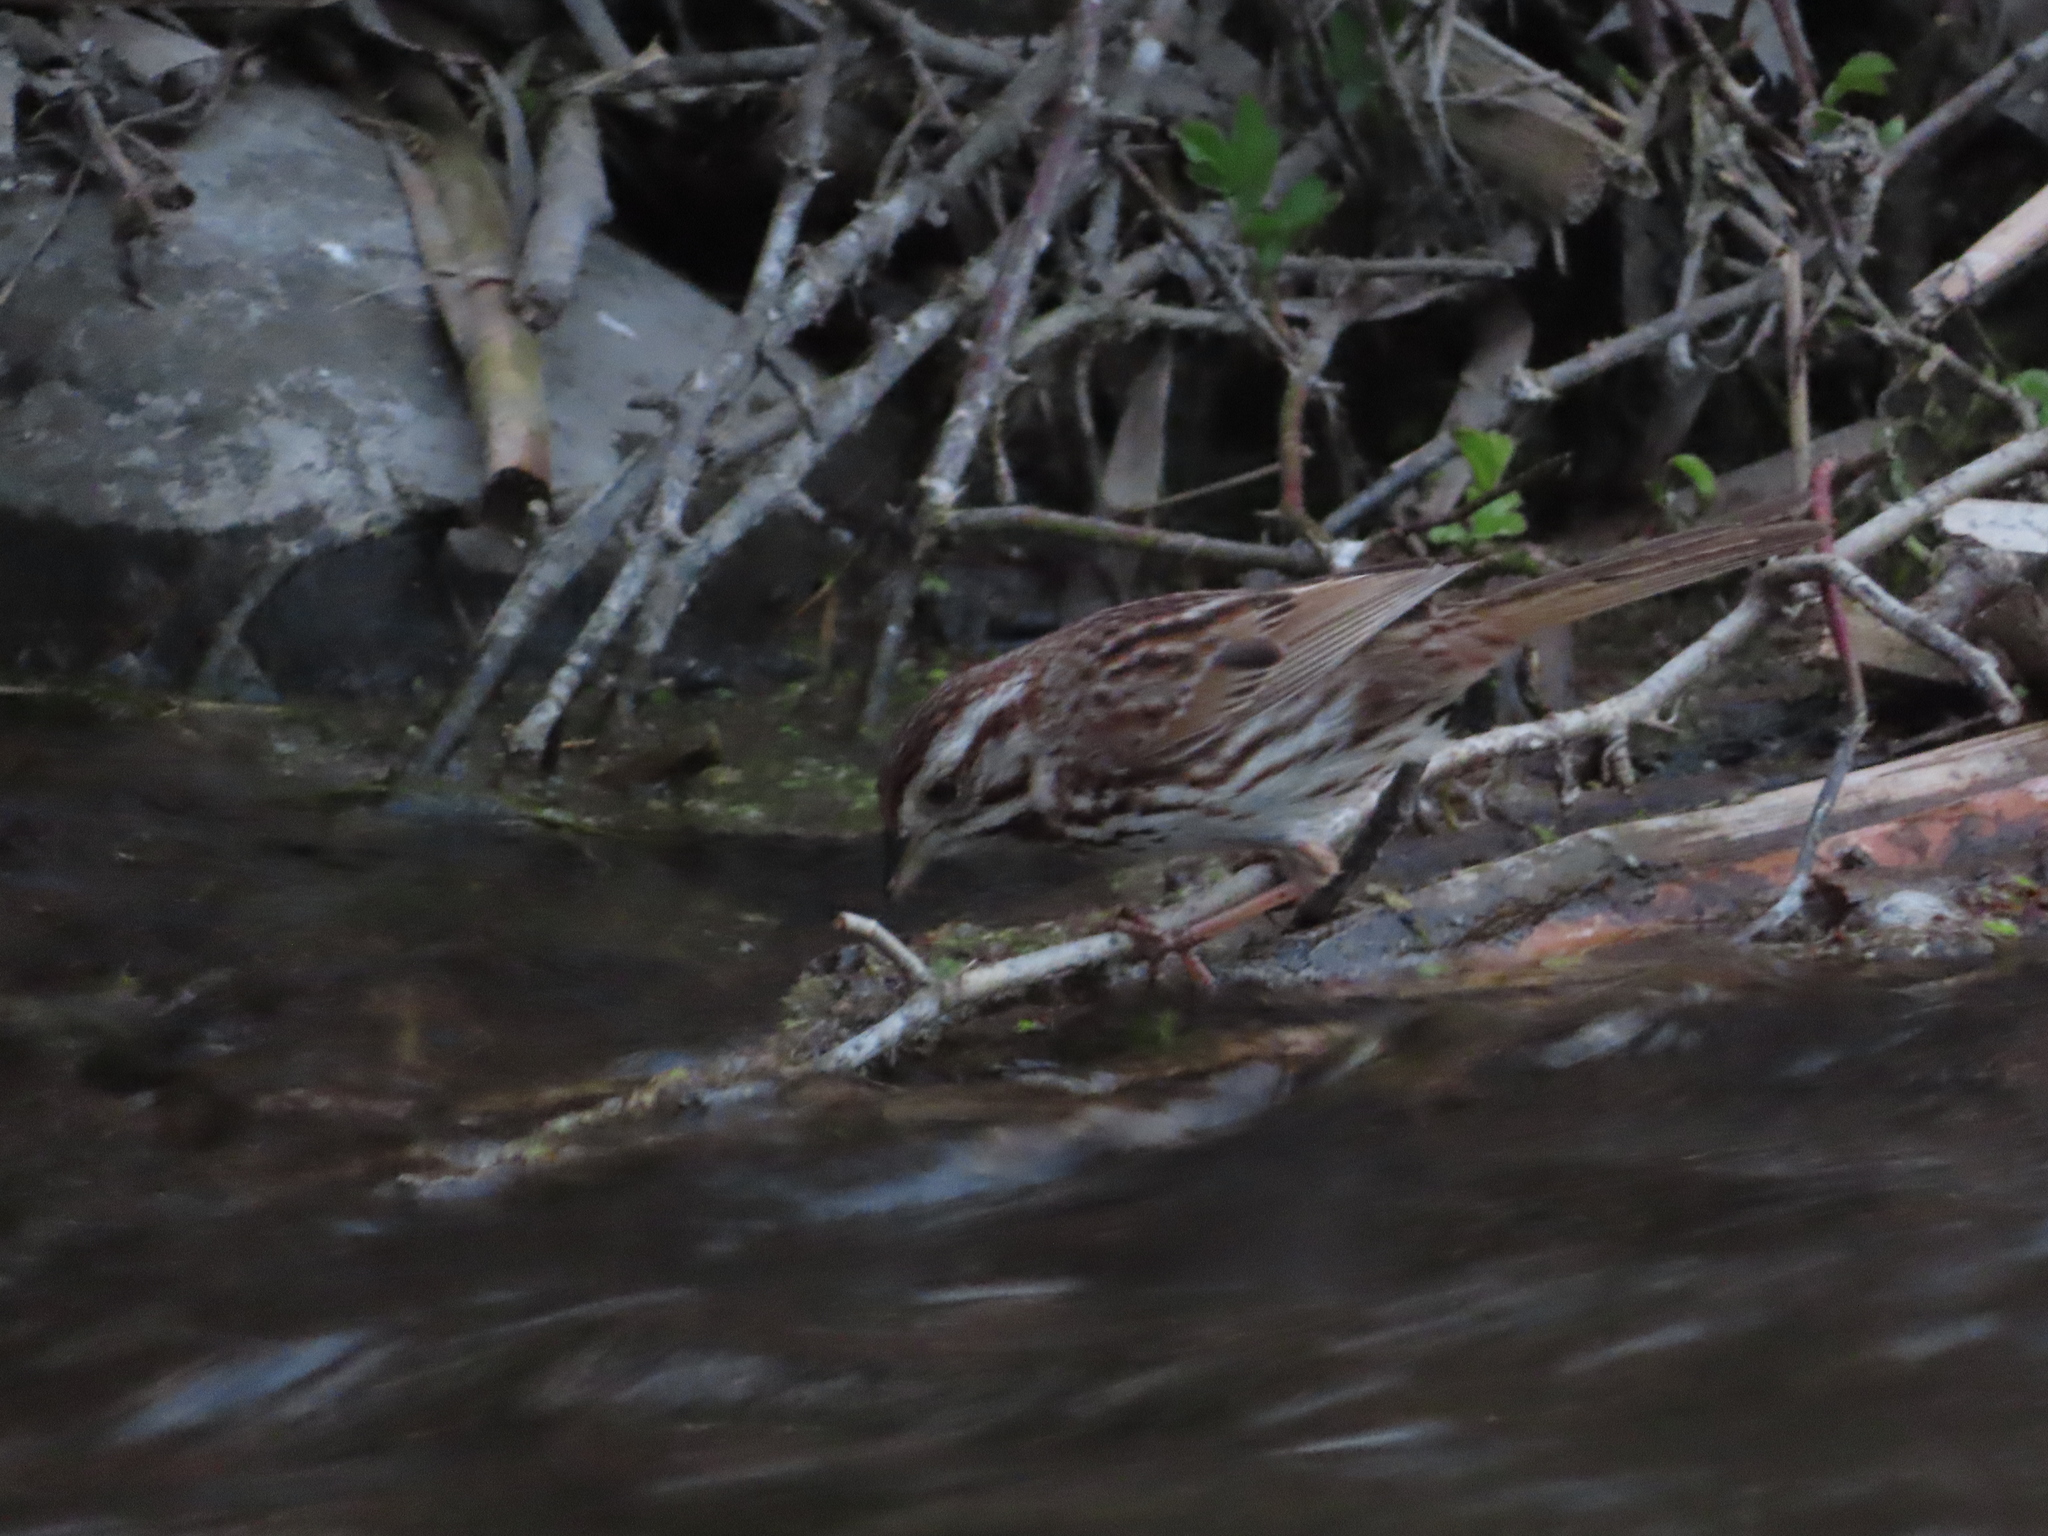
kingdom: Animalia
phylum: Chordata
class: Aves
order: Passeriformes
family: Passerellidae
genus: Melospiza
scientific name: Melospiza melodia
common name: Song sparrow
